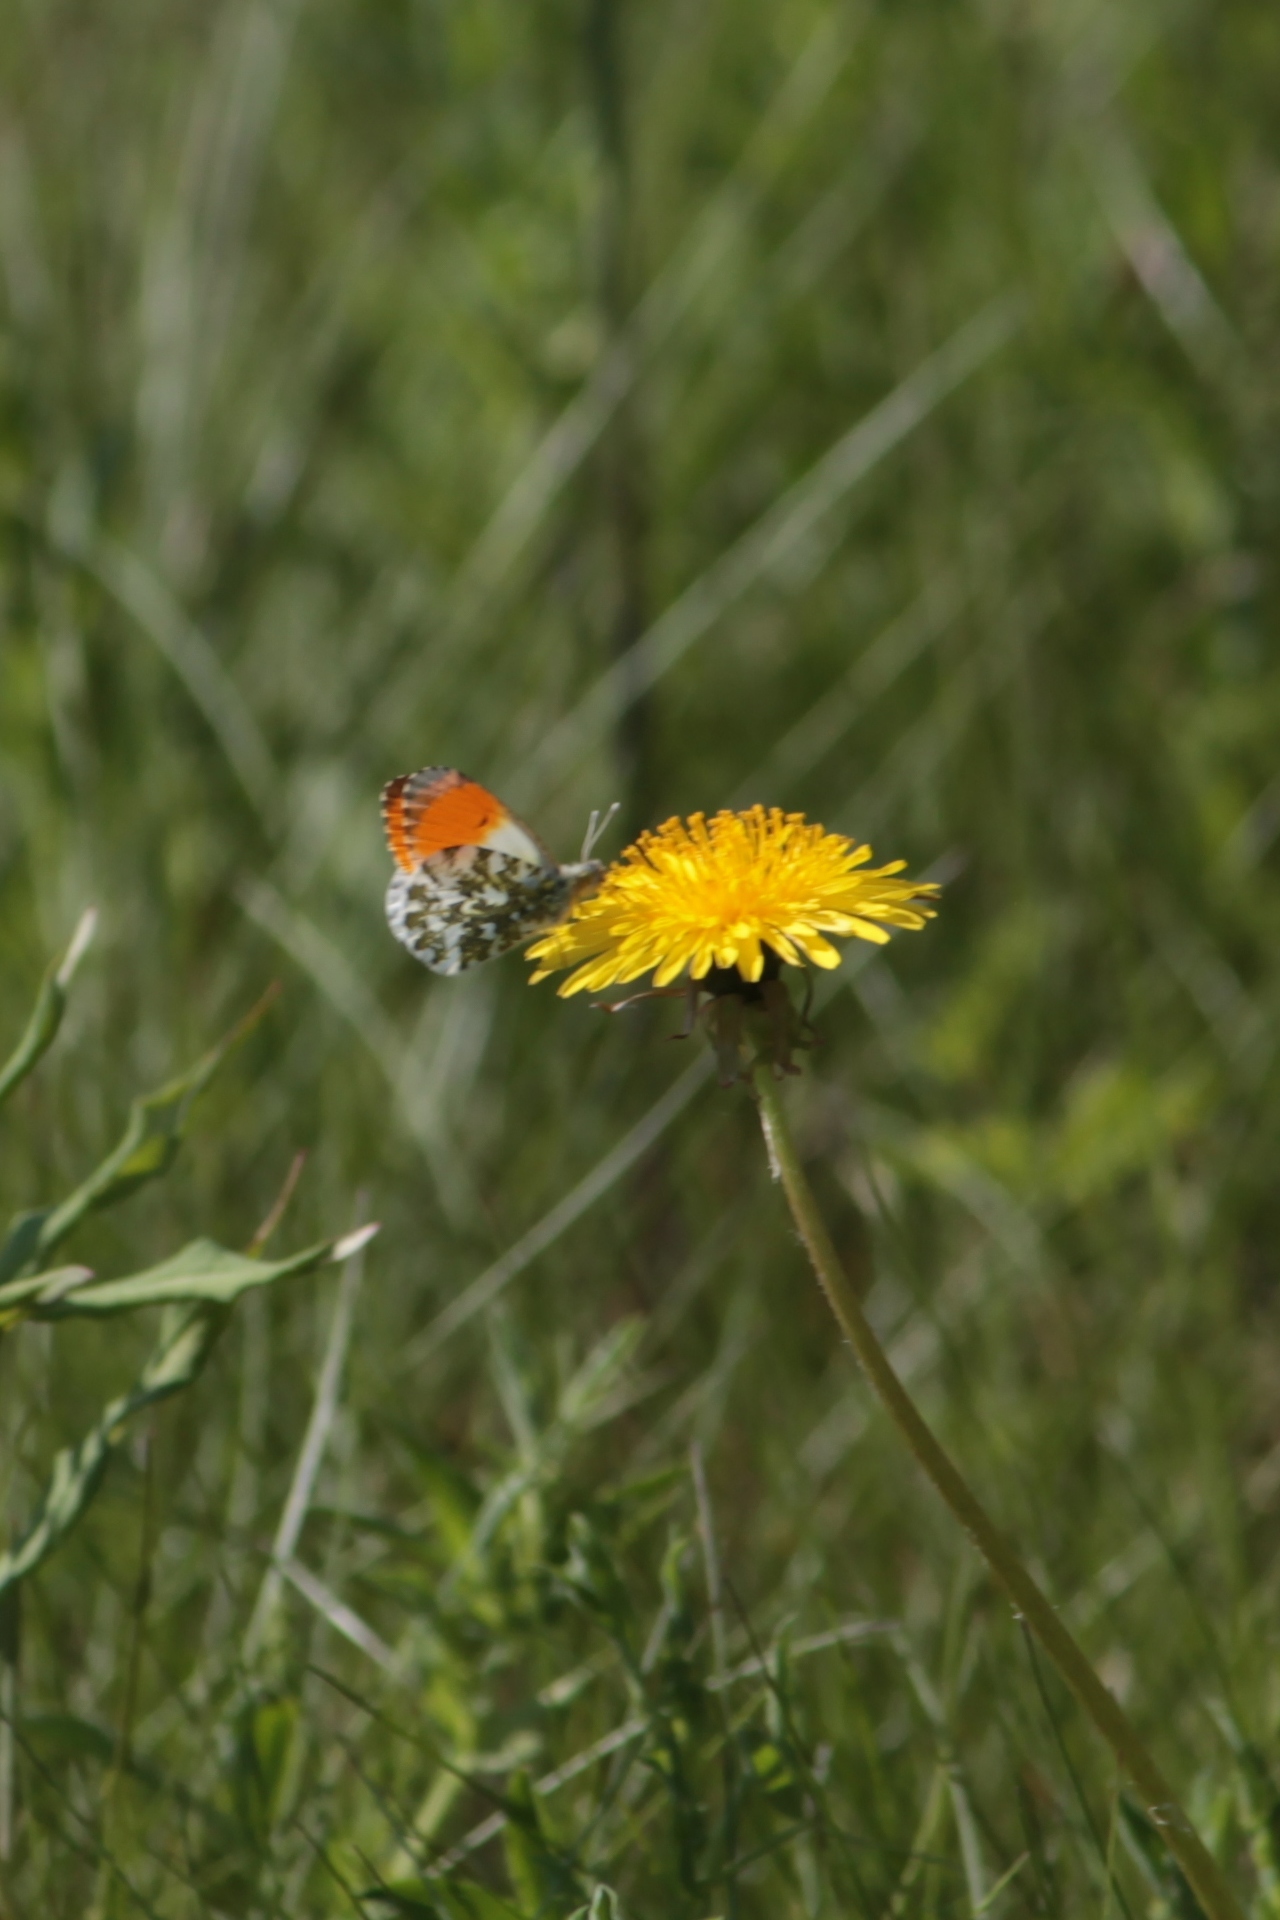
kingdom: Animalia
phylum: Arthropoda
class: Insecta
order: Lepidoptera
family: Pieridae
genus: Anthocharis
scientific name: Anthocharis cardamines
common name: Orange-tip
